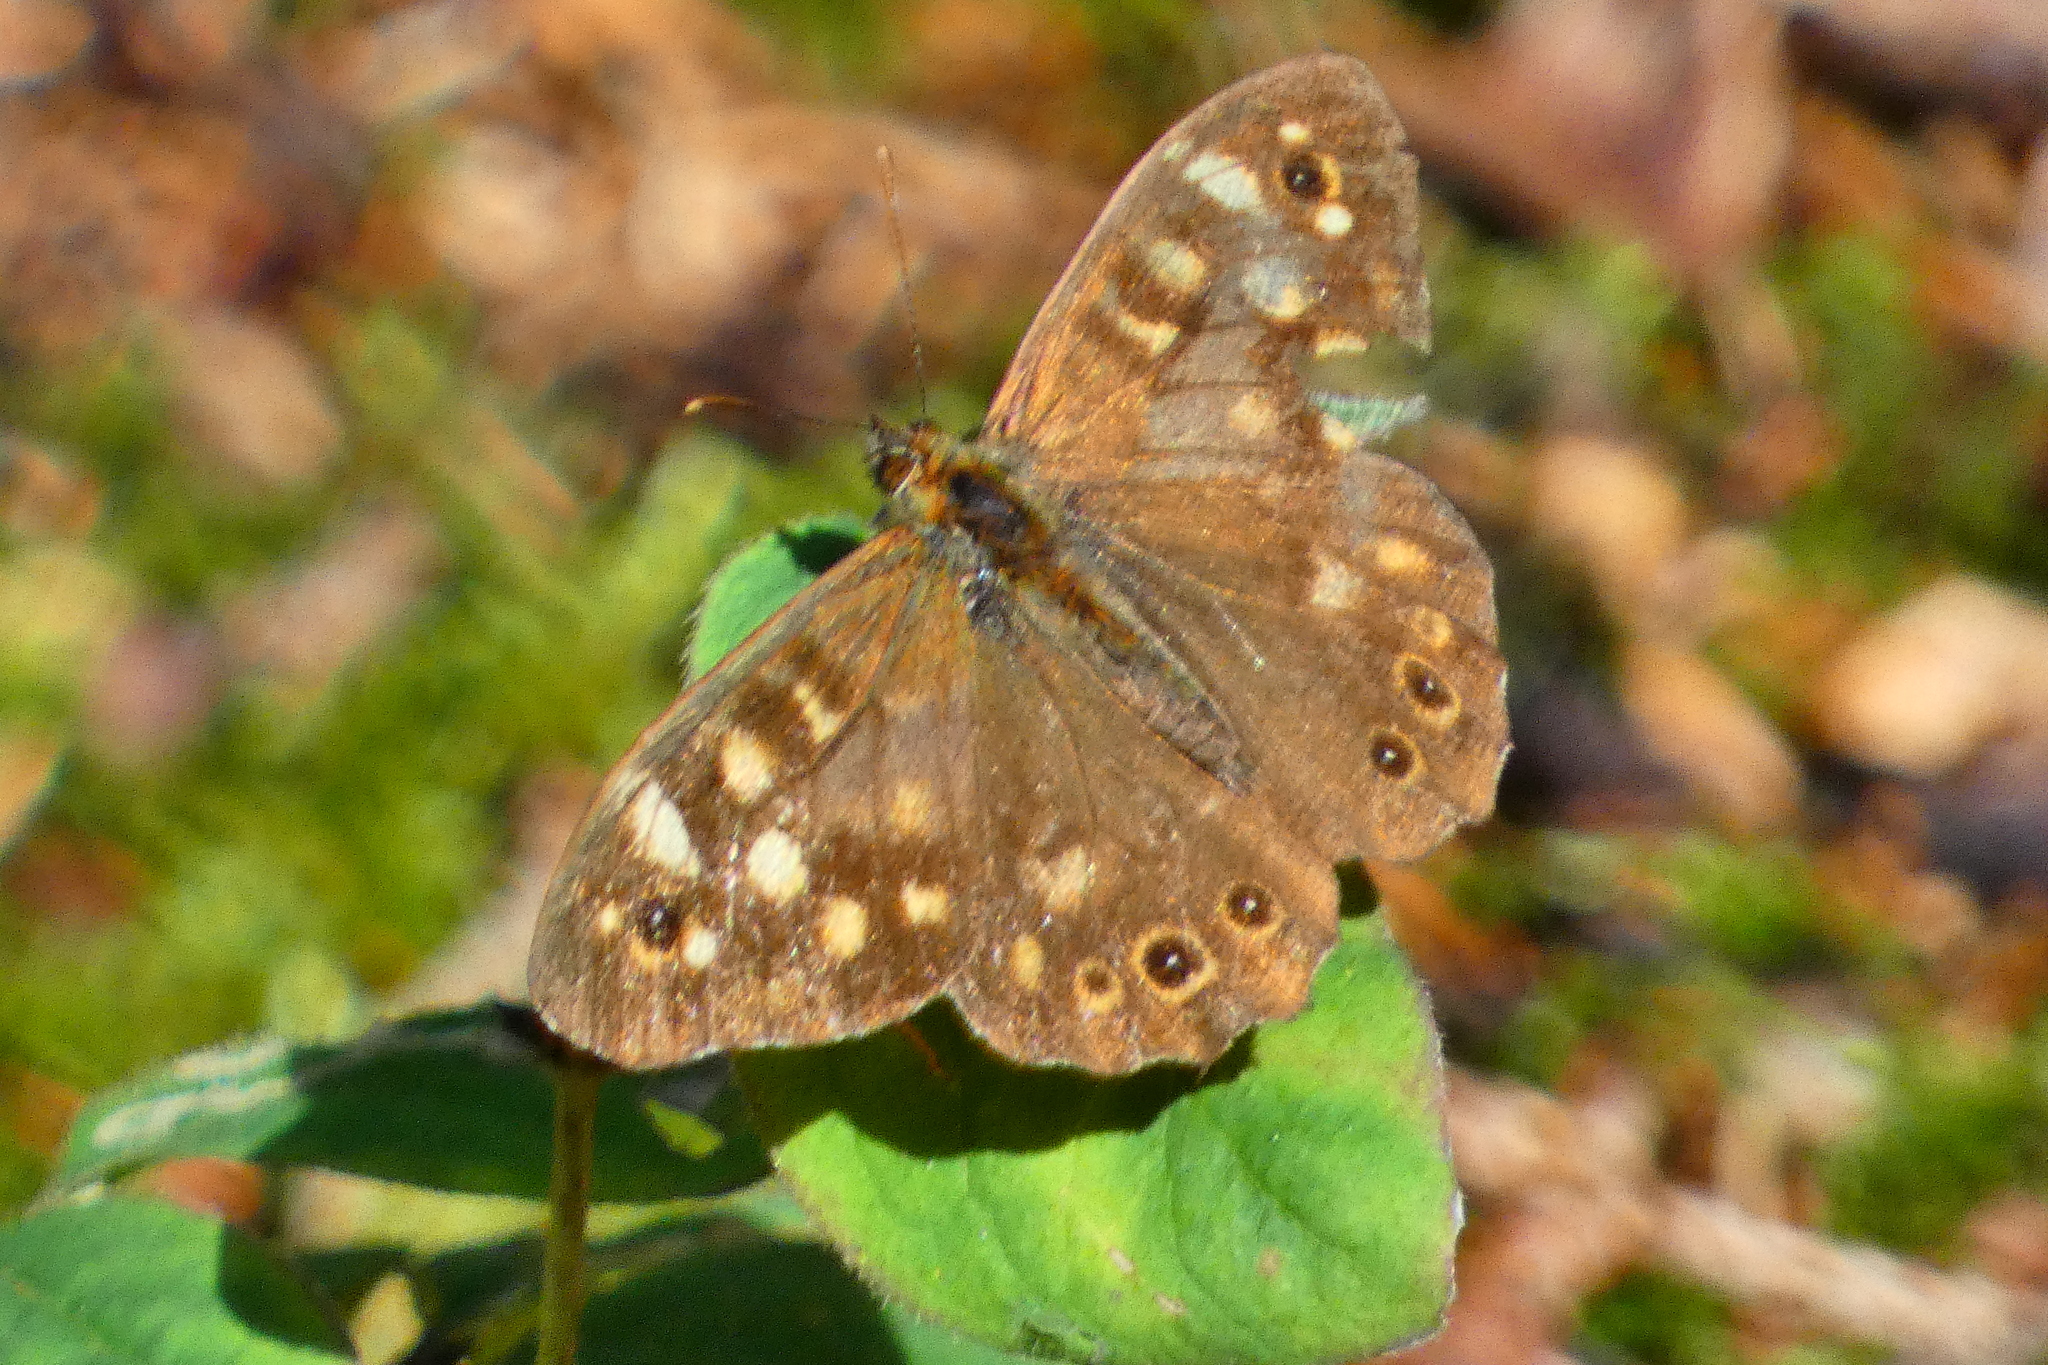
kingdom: Animalia
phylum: Arthropoda
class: Insecta
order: Lepidoptera
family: Nymphalidae
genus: Pararge
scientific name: Pararge aegeria
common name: Speckled wood
